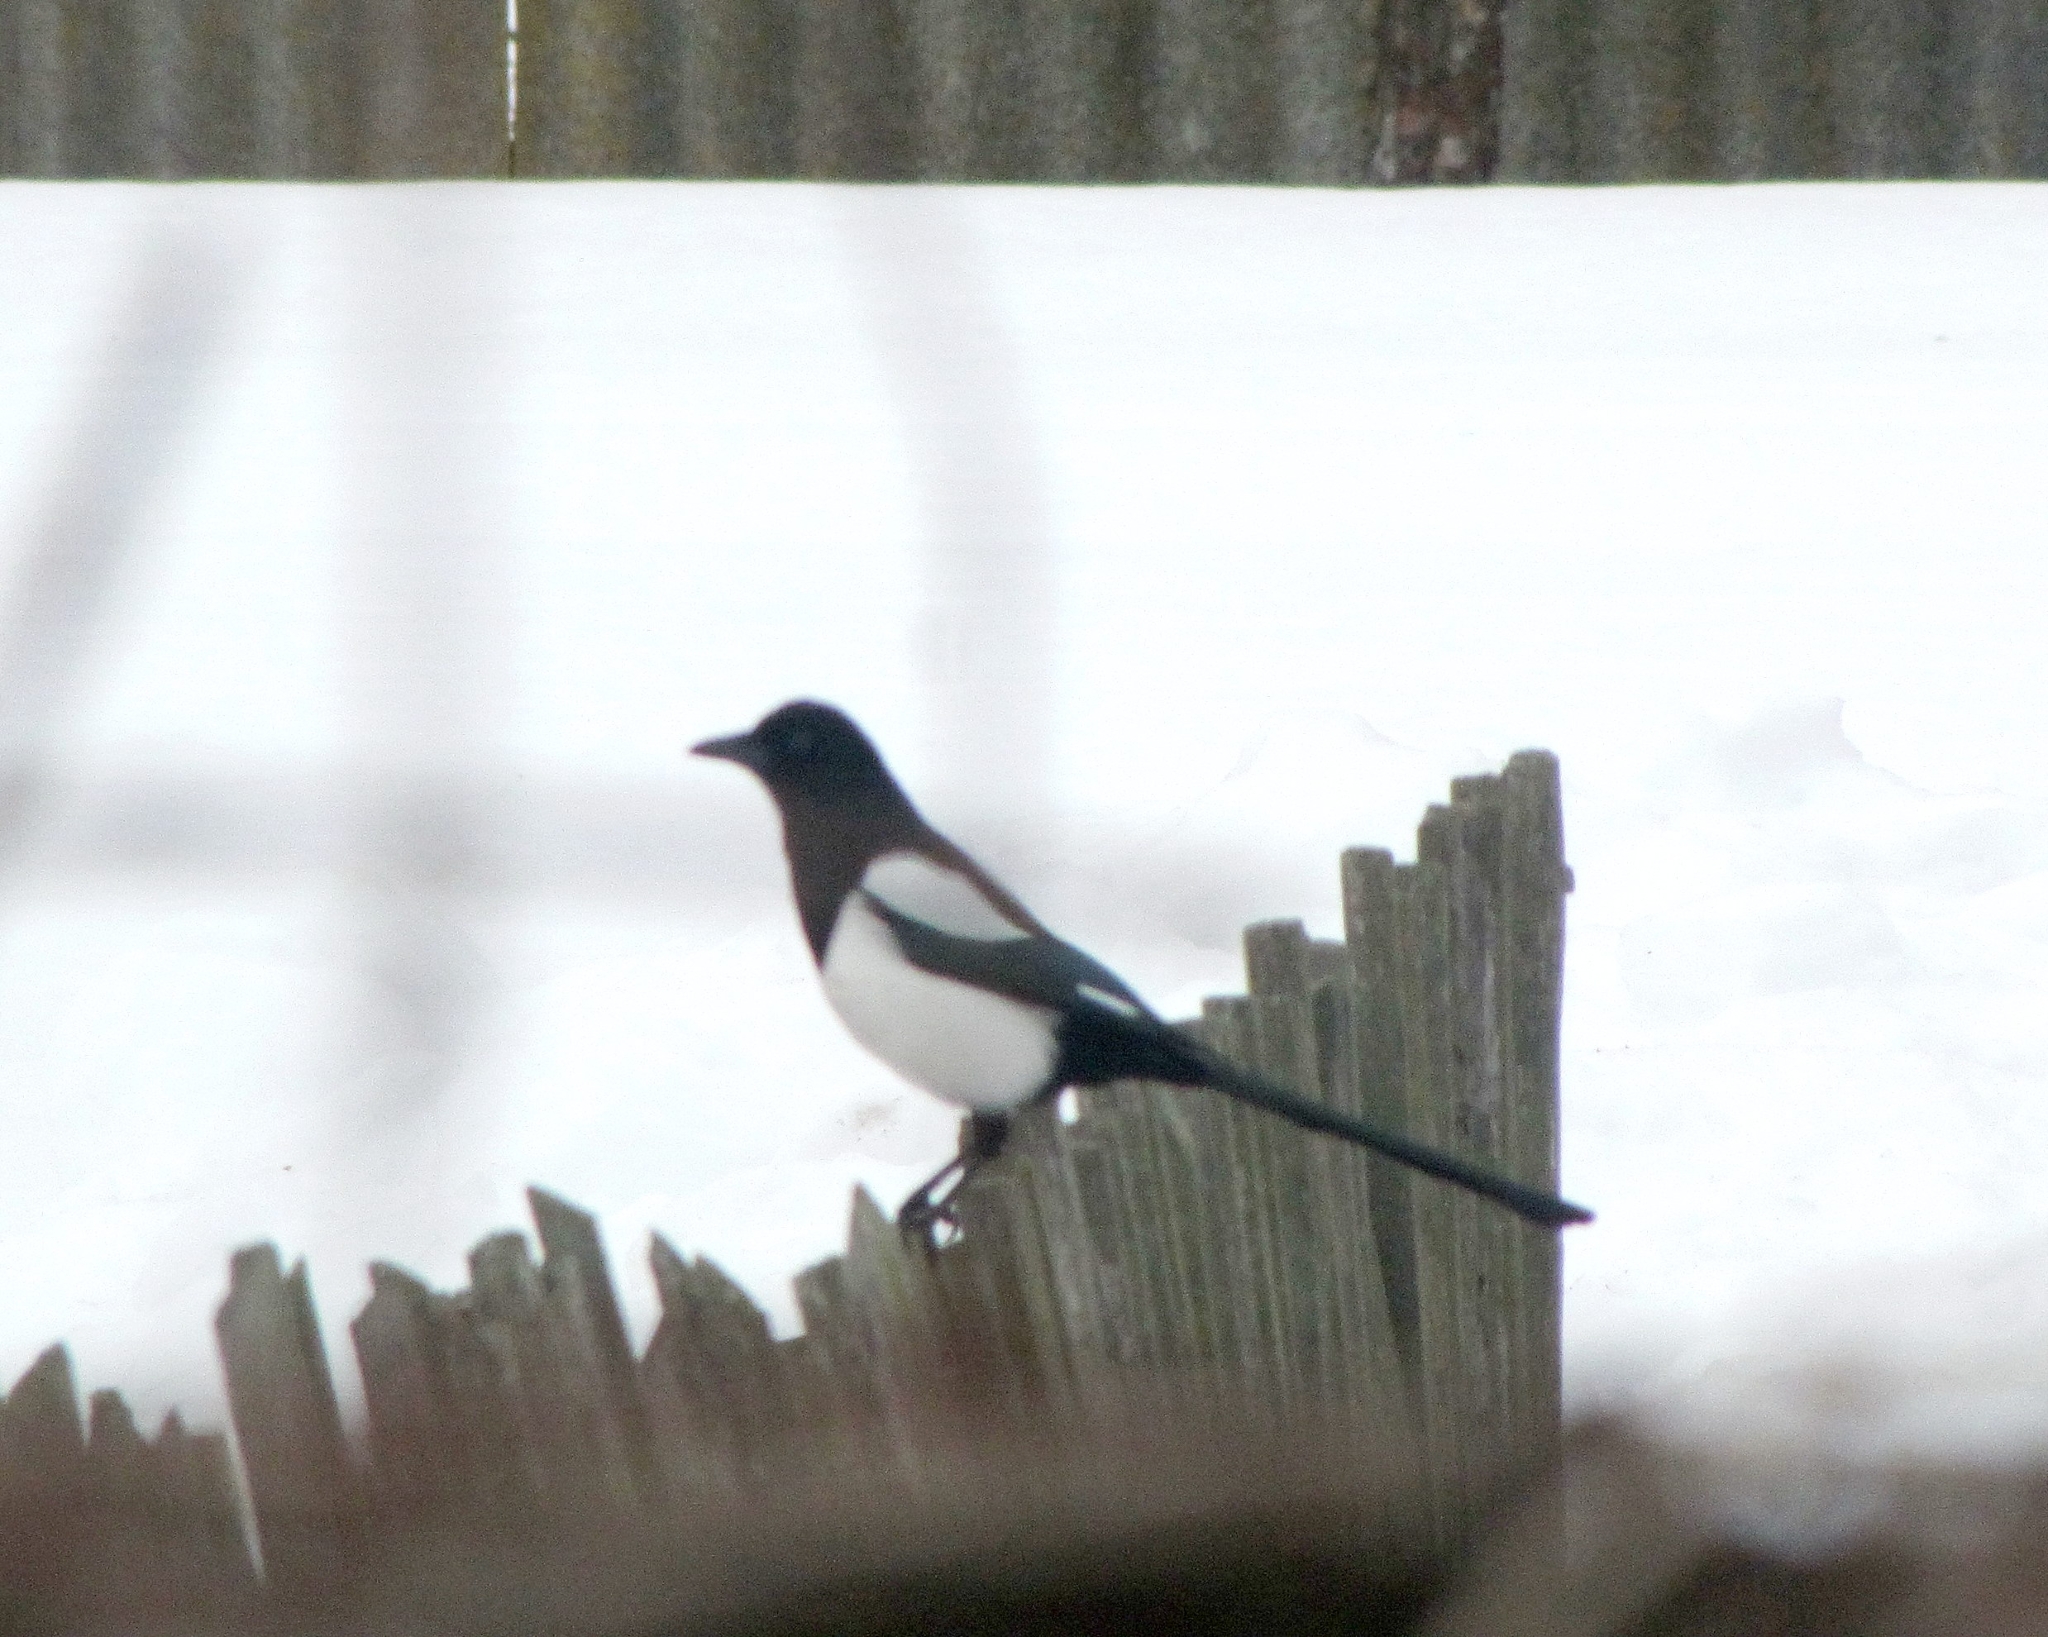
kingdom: Animalia
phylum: Chordata
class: Aves
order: Passeriformes
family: Corvidae
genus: Pica
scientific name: Pica pica
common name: Eurasian magpie
